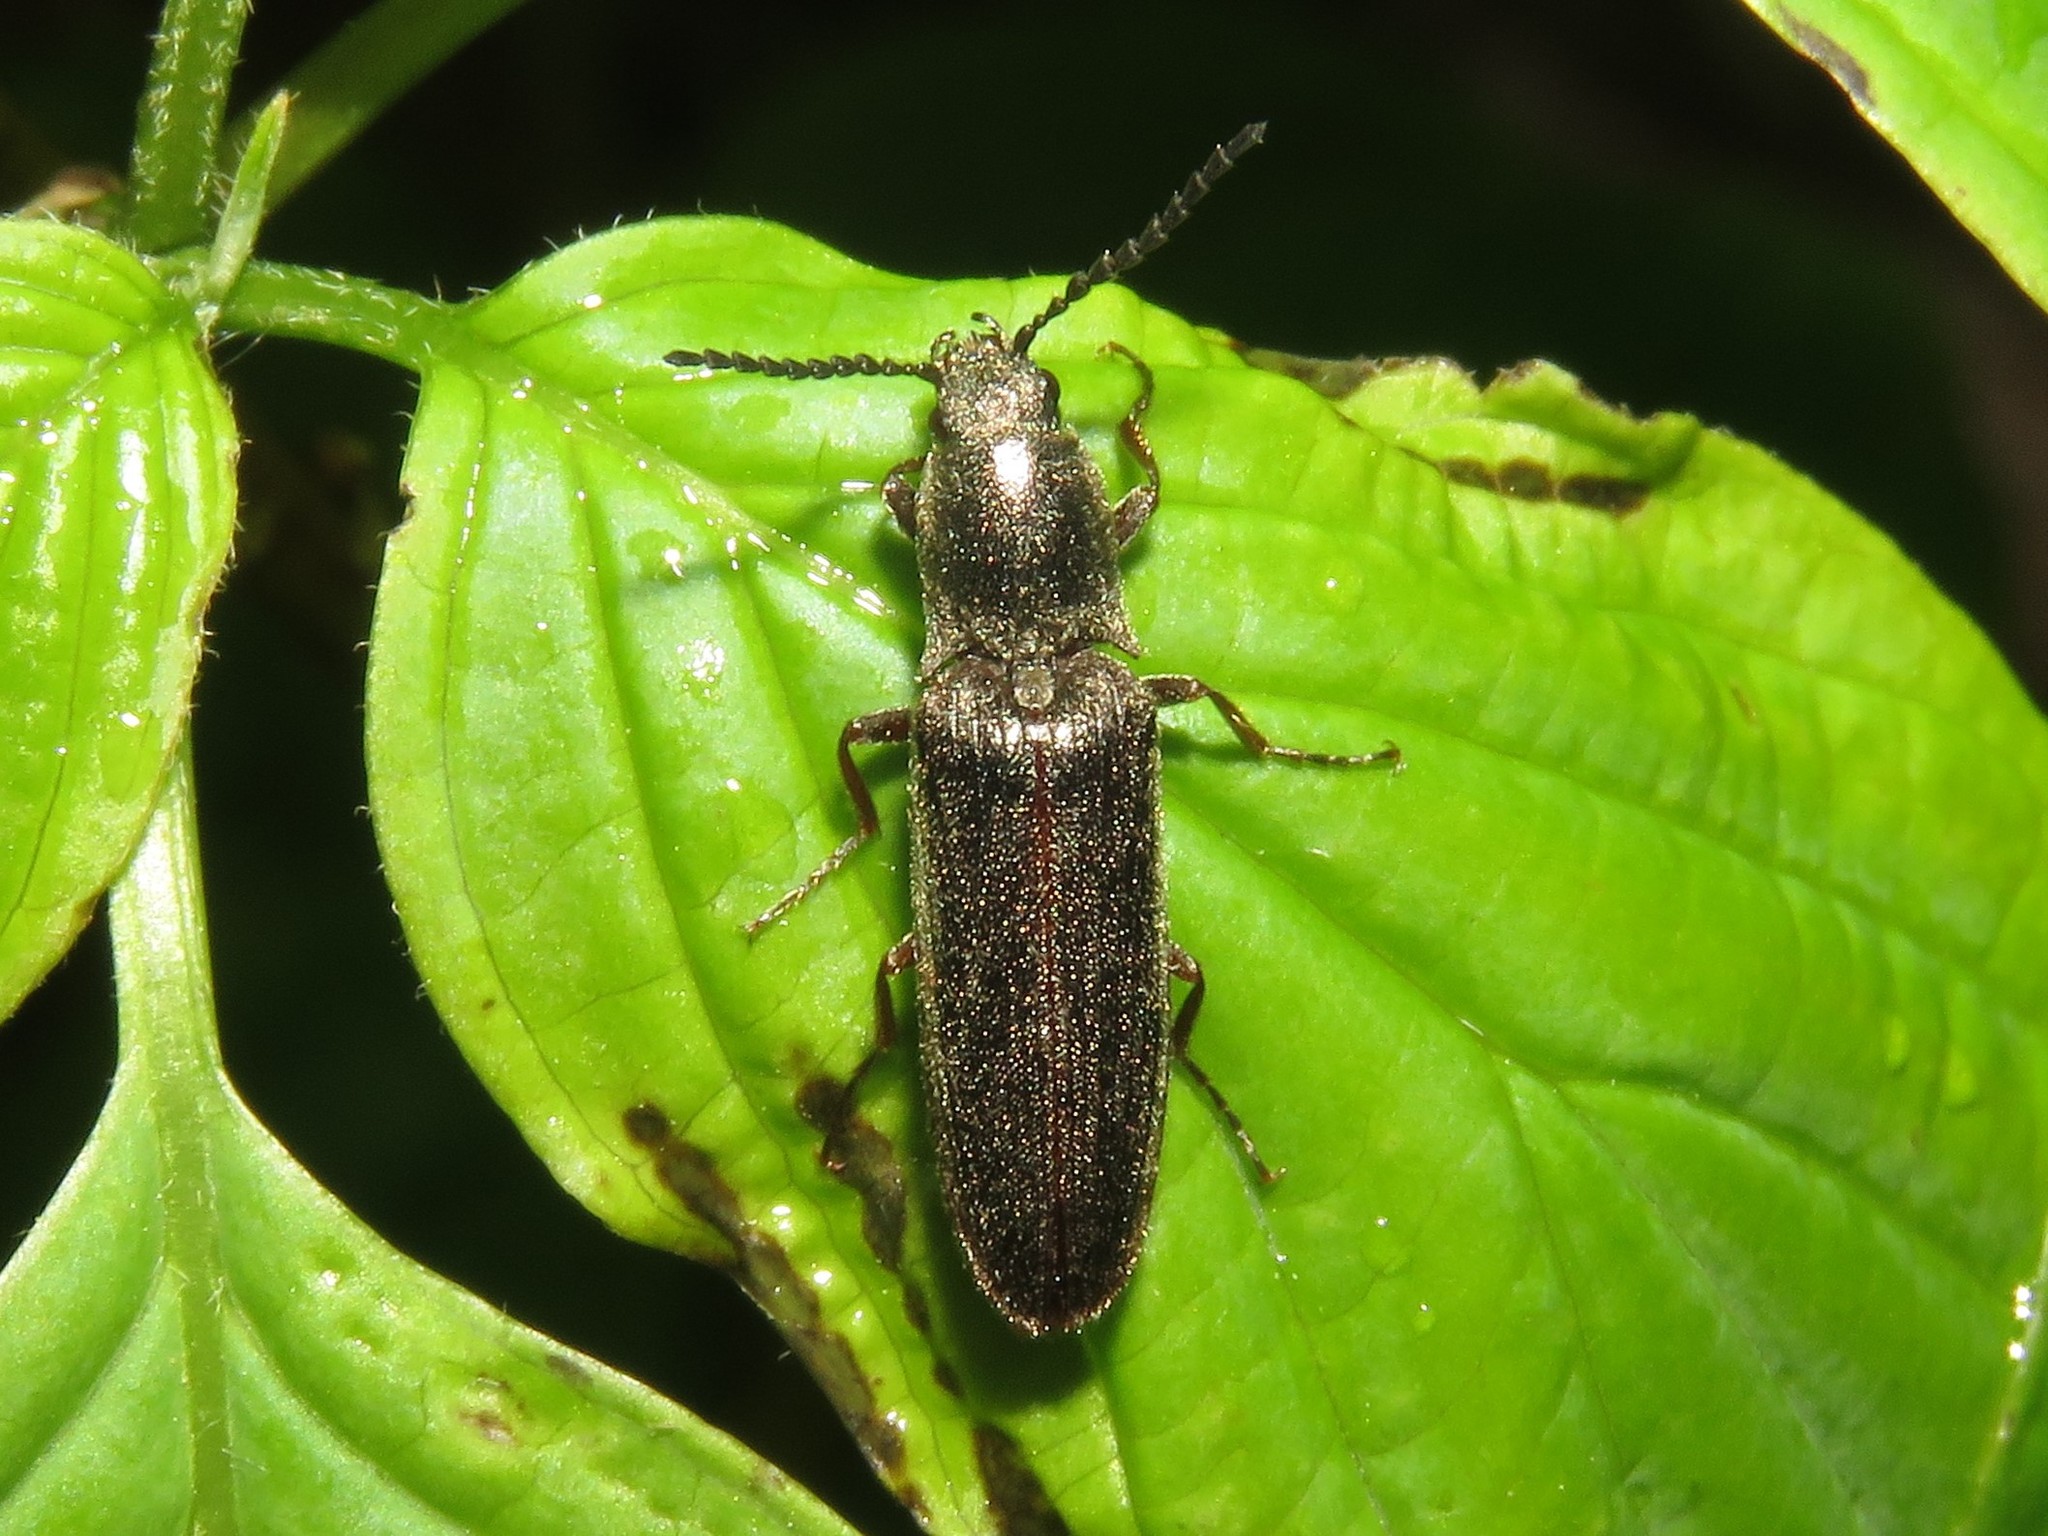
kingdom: Animalia
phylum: Arthropoda
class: Insecta
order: Coleoptera
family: Elateridae
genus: Sylvanelater
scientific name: Sylvanelater cylindriformis
